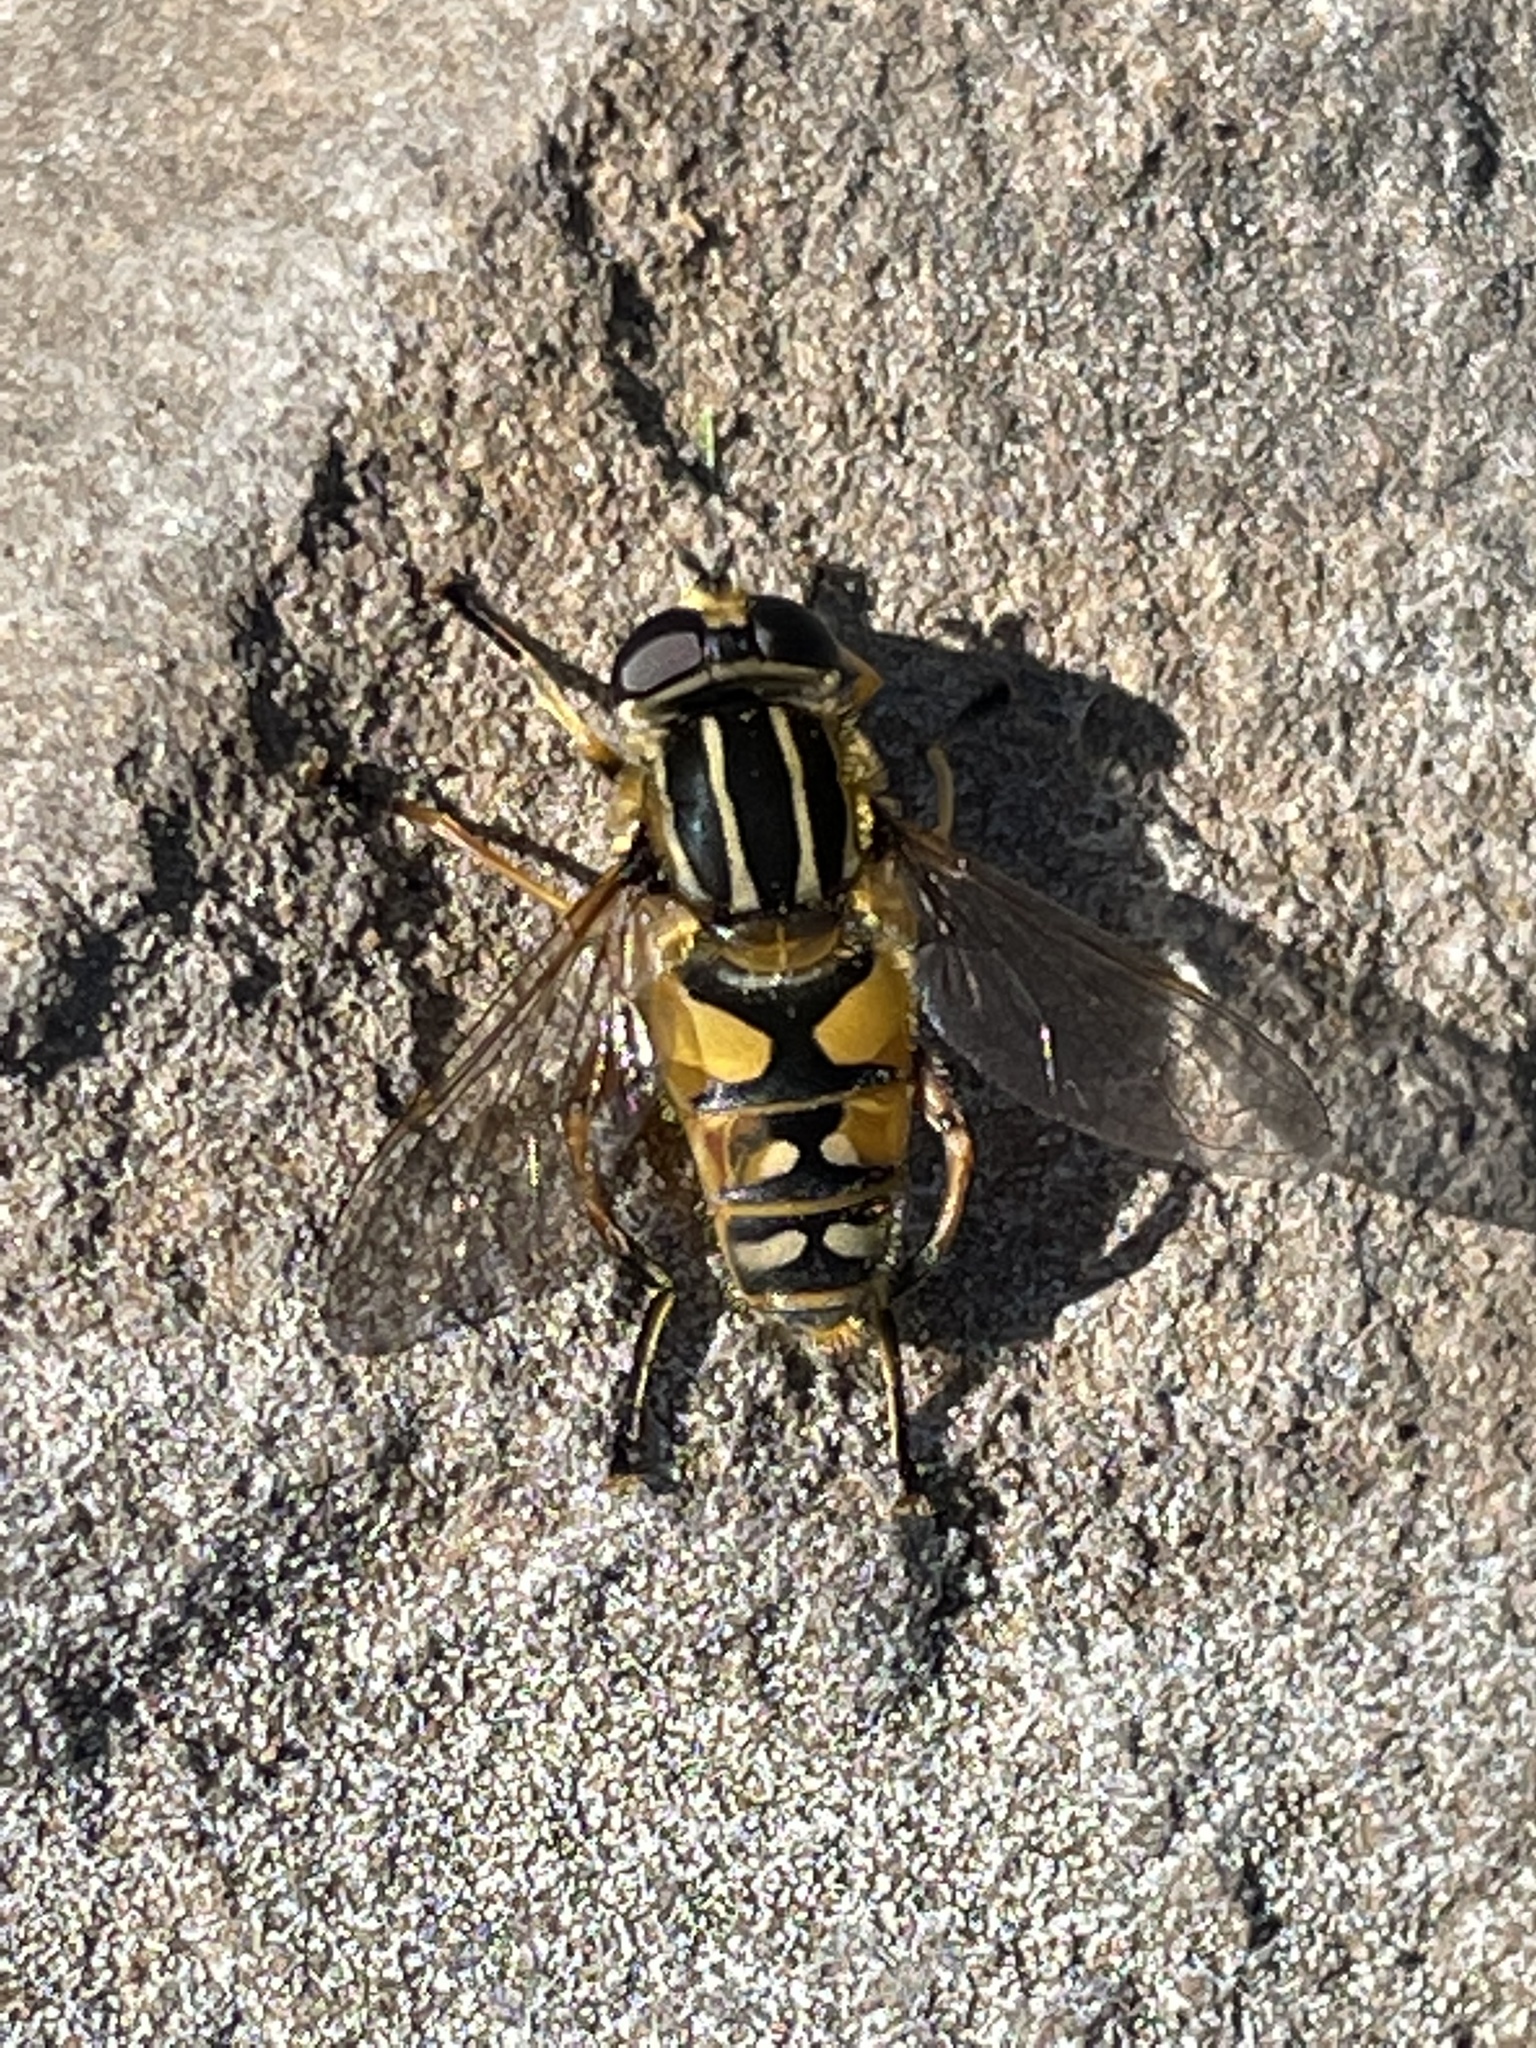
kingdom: Animalia
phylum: Arthropoda
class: Insecta
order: Diptera
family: Syrphidae
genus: Helophilus
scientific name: Helophilus pendulus
